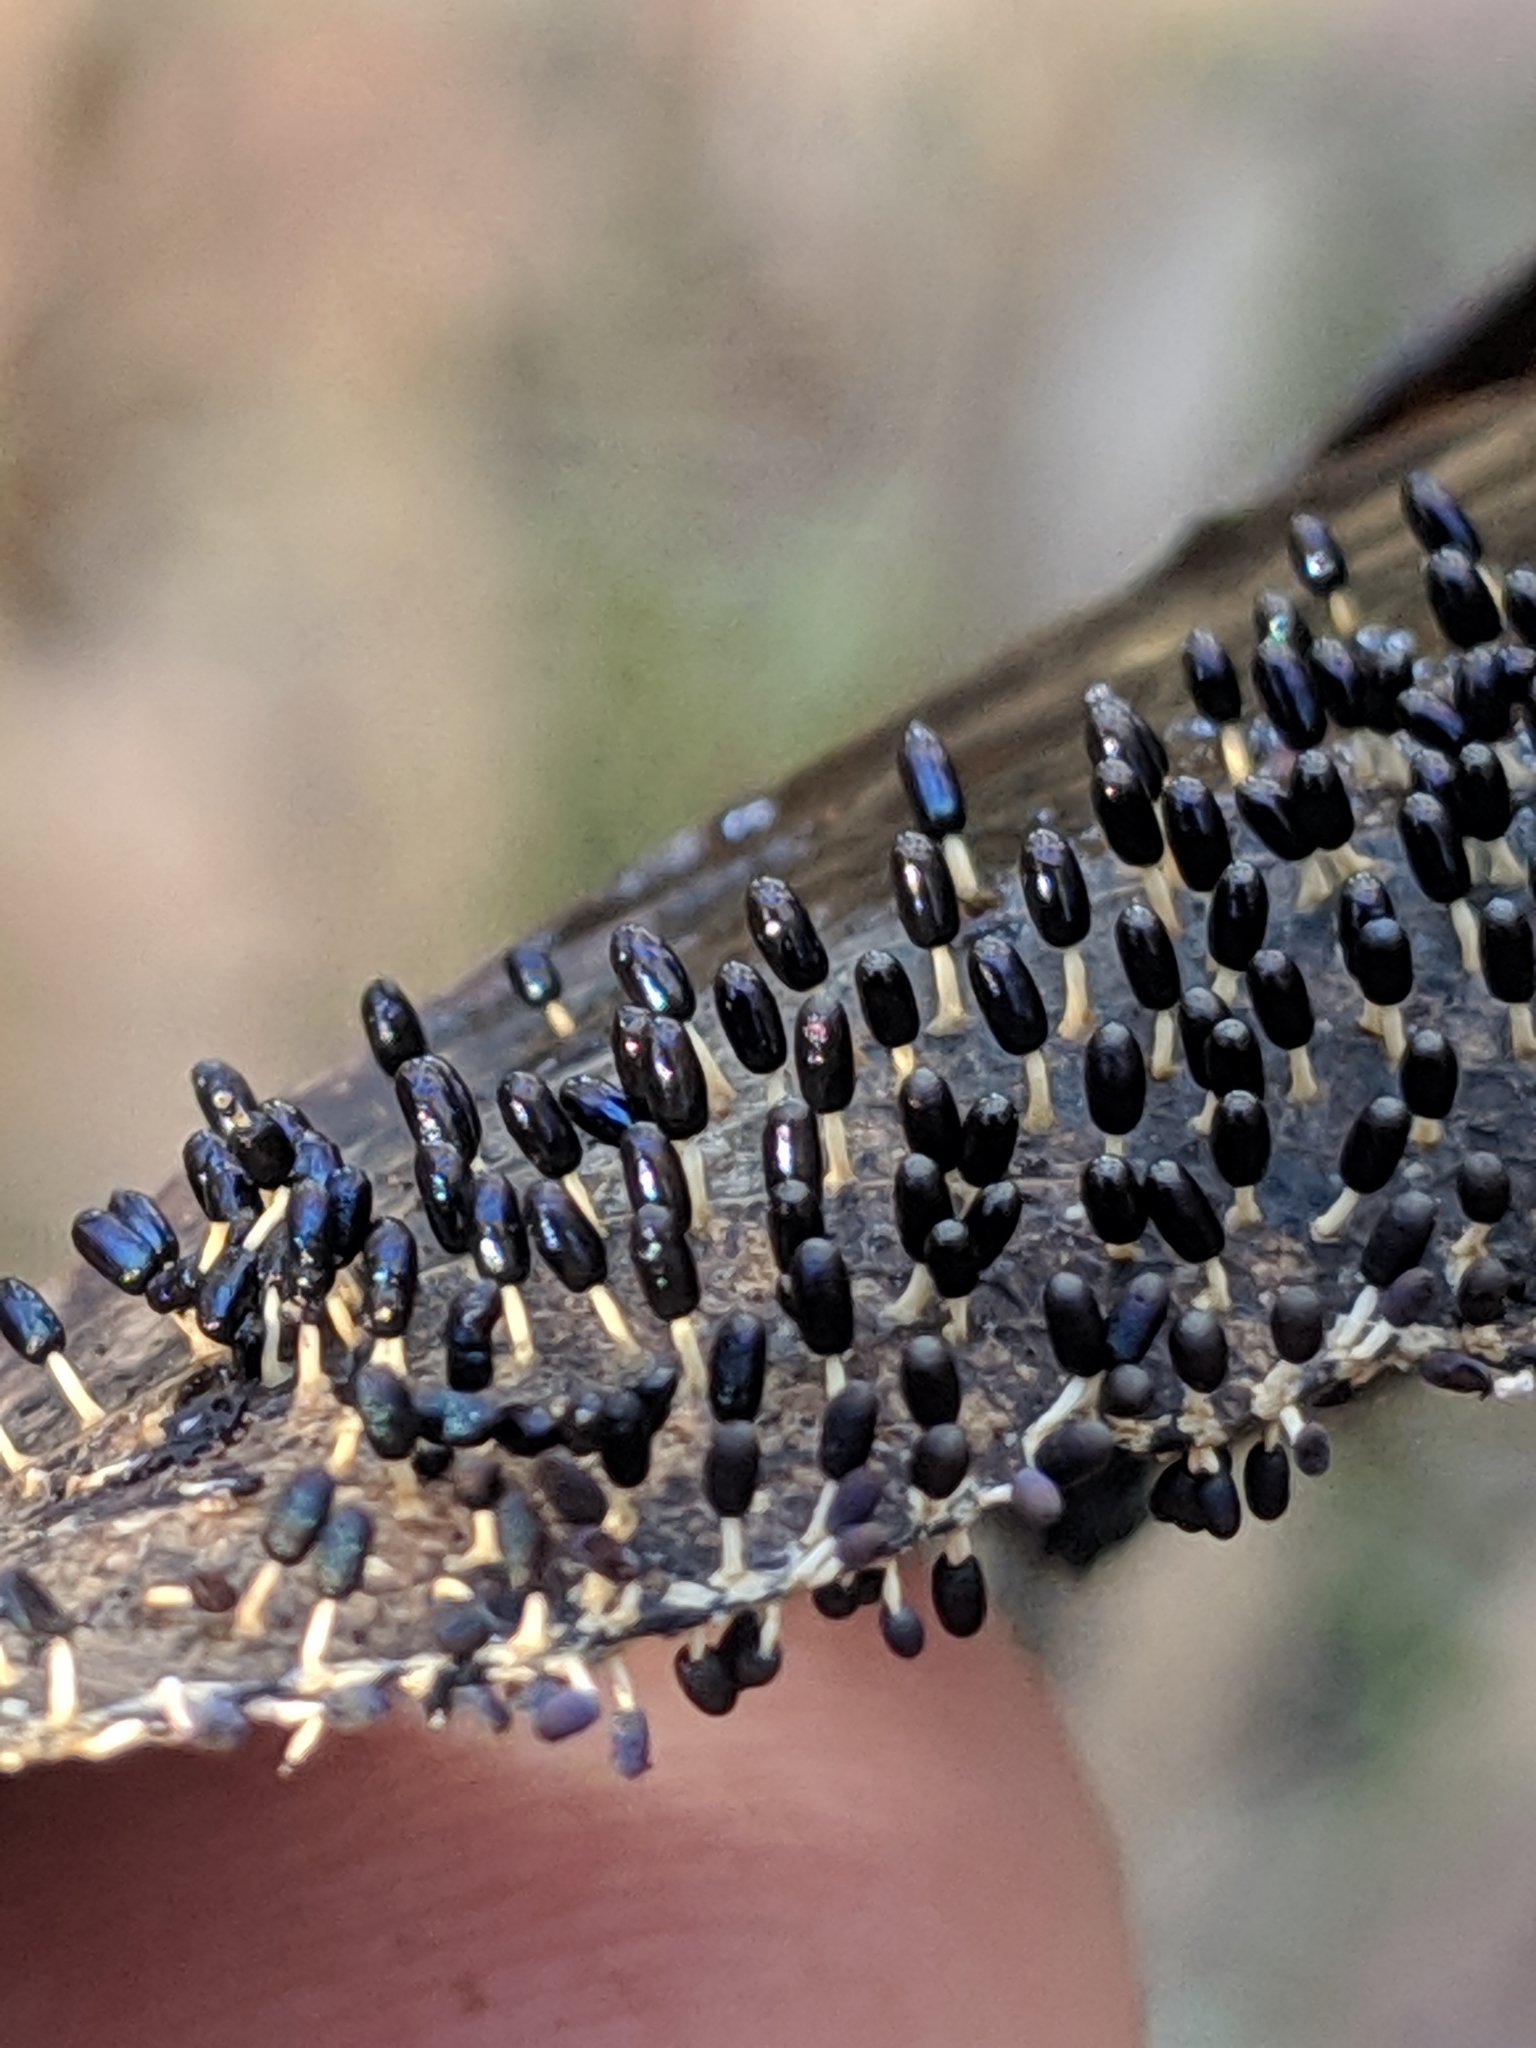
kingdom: Protozoa
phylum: Mycetozoa
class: Myxomycetes
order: Physarales
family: Didymiaceae
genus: Diachea
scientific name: Diachea leucopodia
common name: White-footed slime
